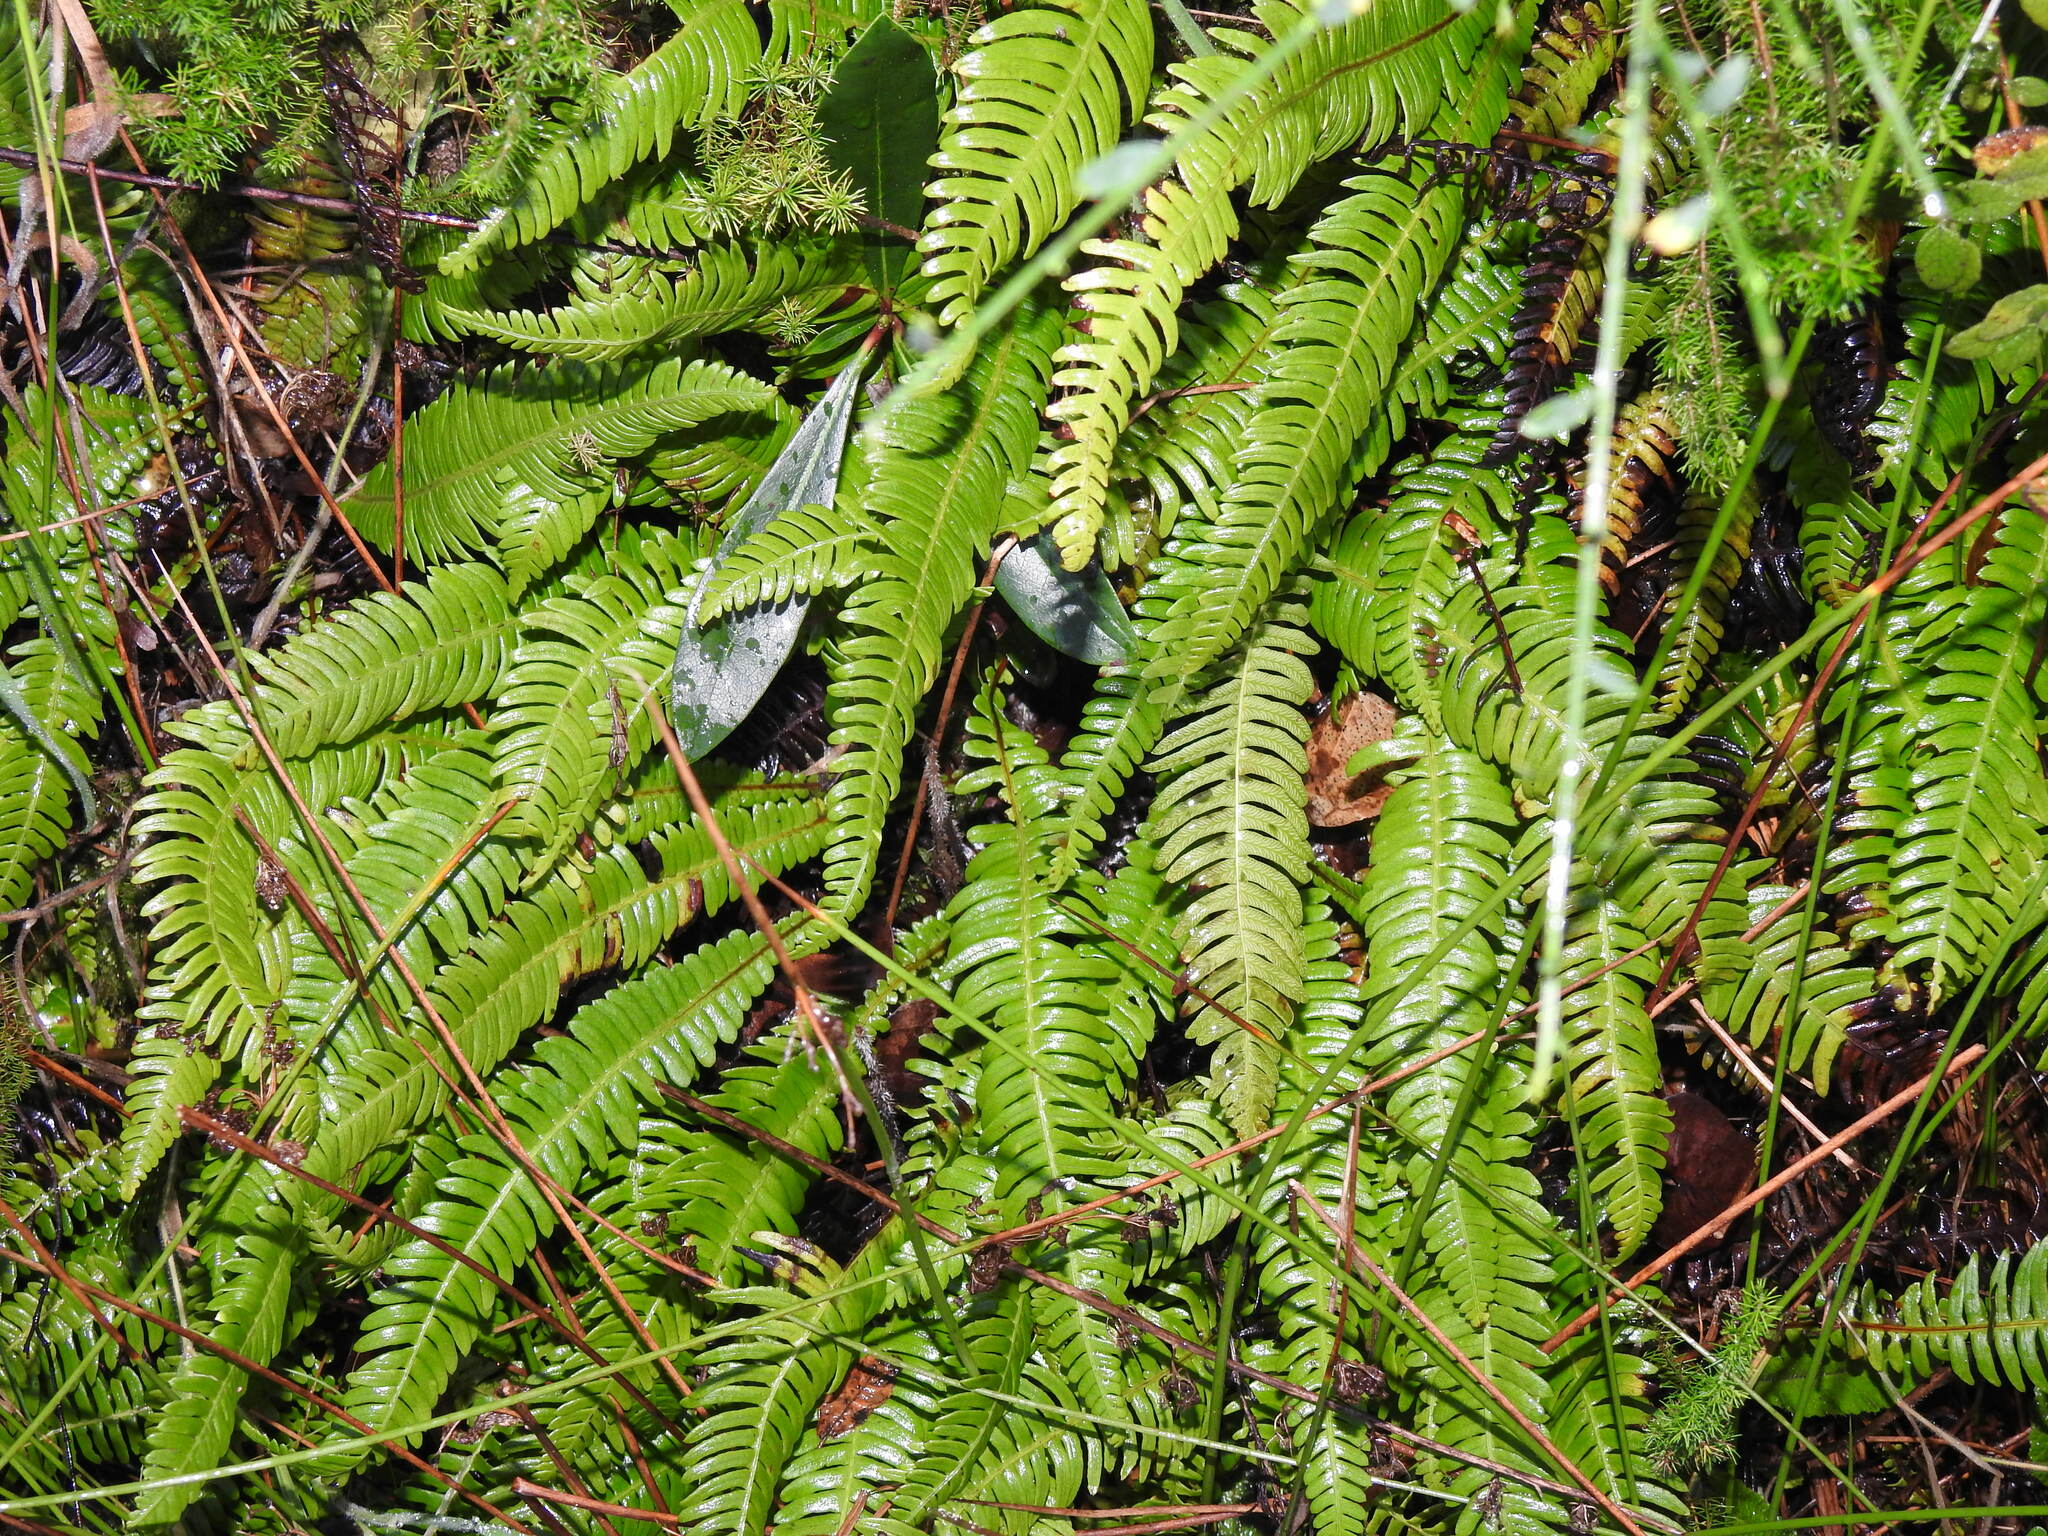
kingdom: Plantae
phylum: Tracheophyta
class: Polypodiopsida
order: Polypodiales
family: Blechnaceae
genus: Struthiopteris
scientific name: Struthiopteris spicant
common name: Deer fern
